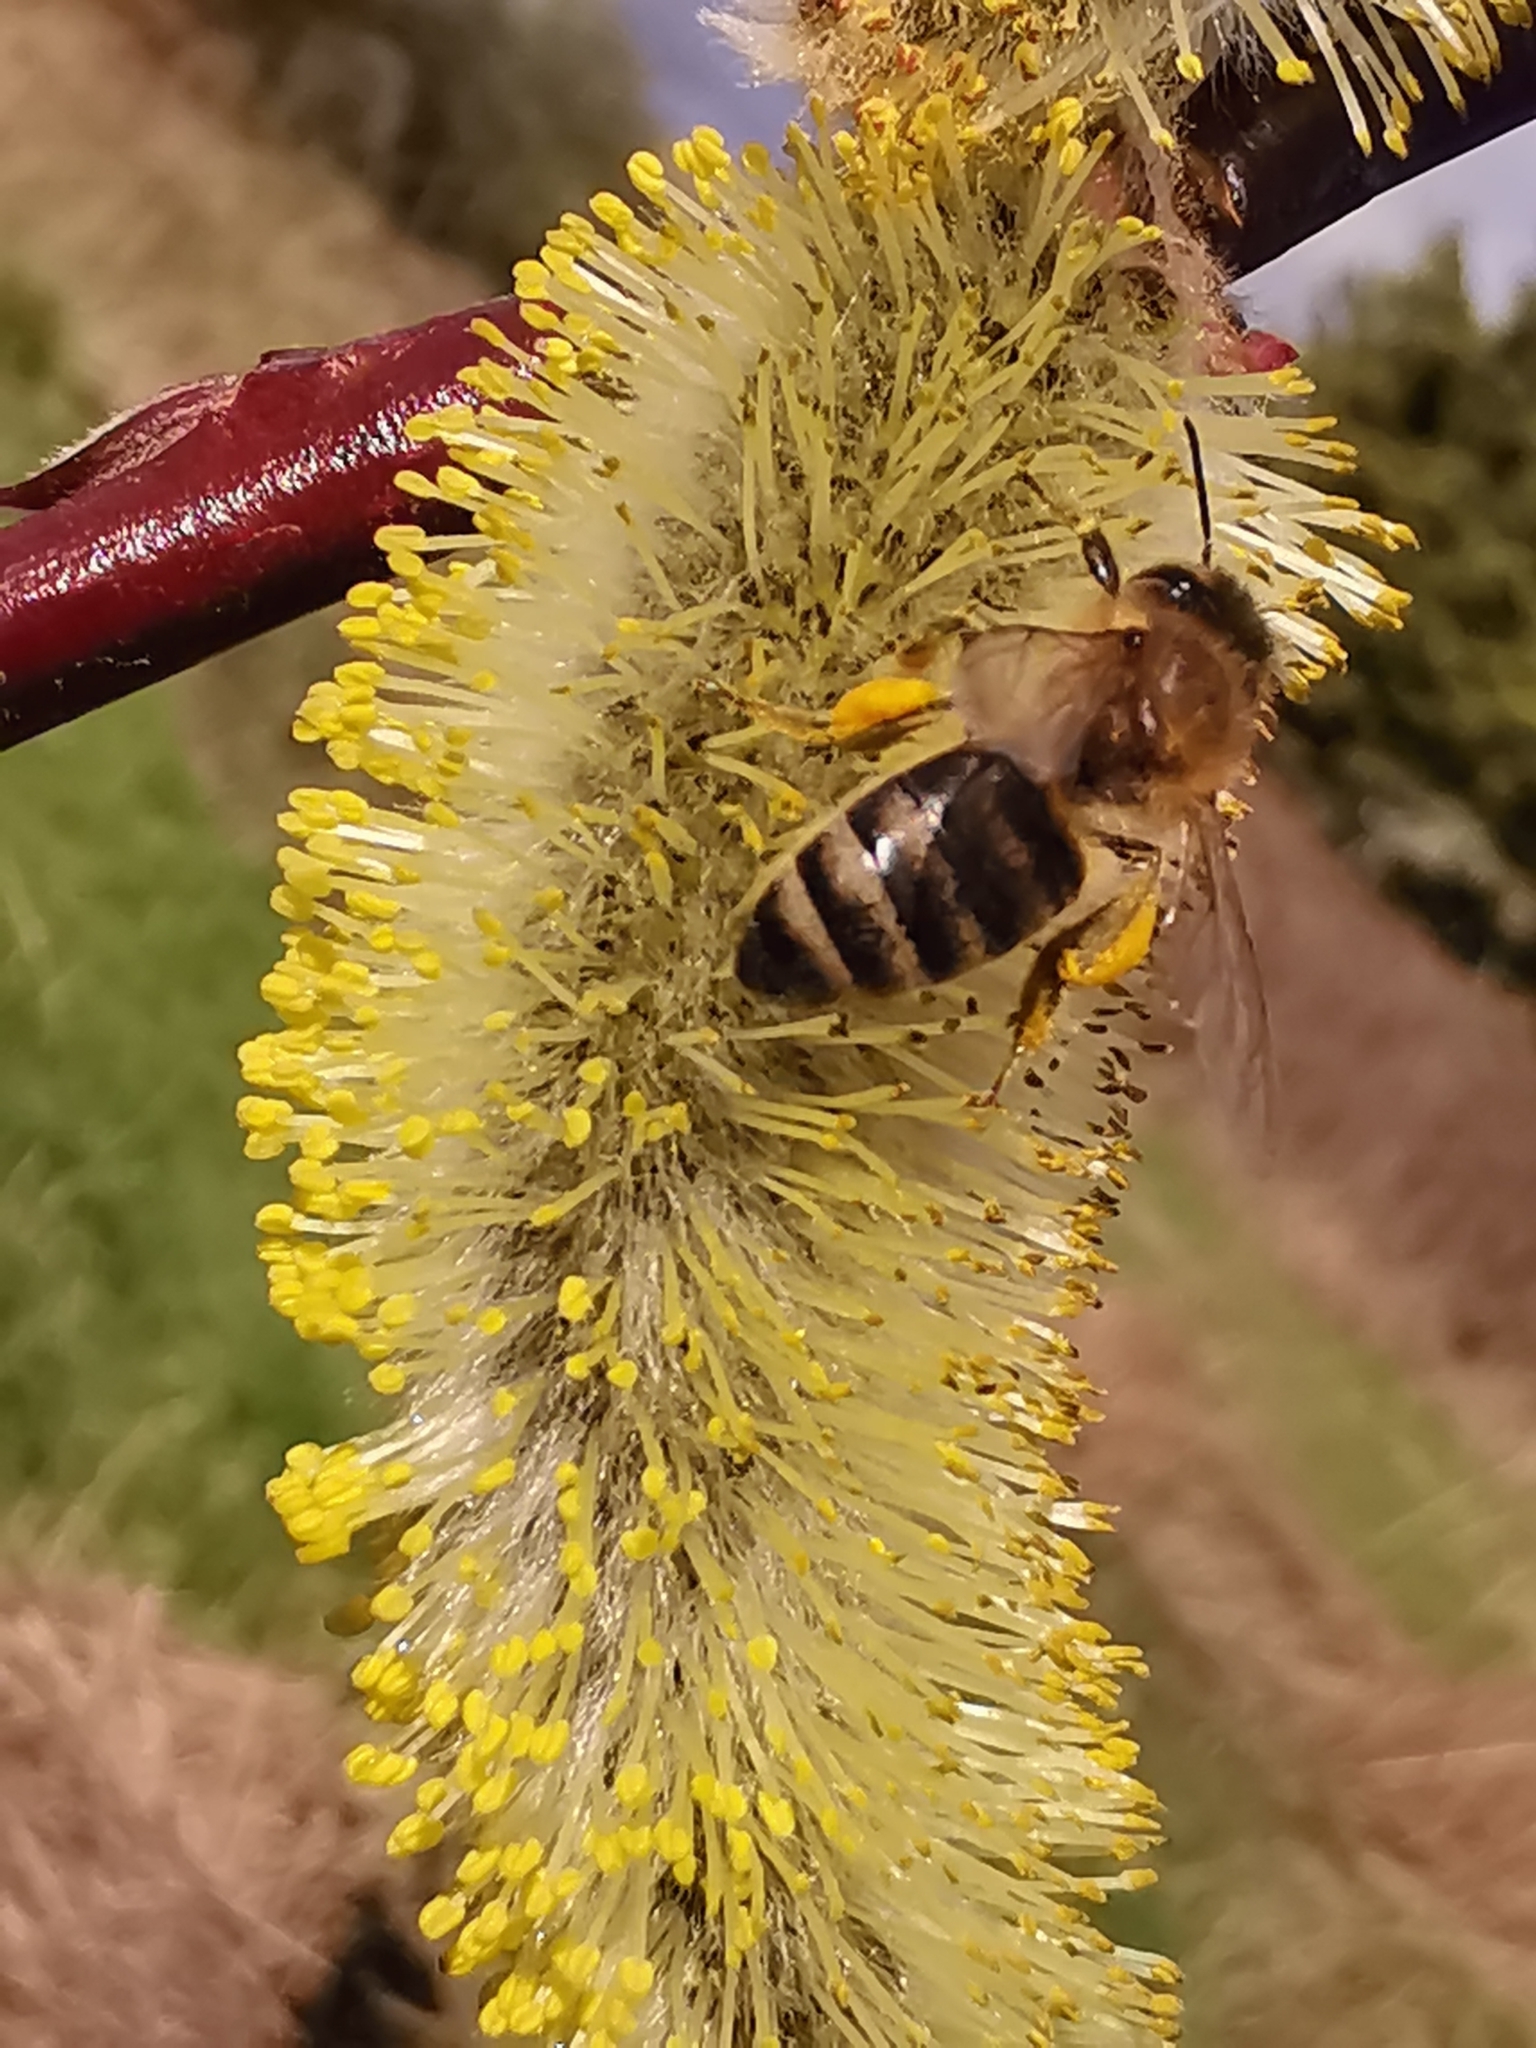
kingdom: Animalia
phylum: Arthropoda
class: Insecta
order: Hymenoptera
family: Apidae
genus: Apis
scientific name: Apis mellifera
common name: Honey bee
